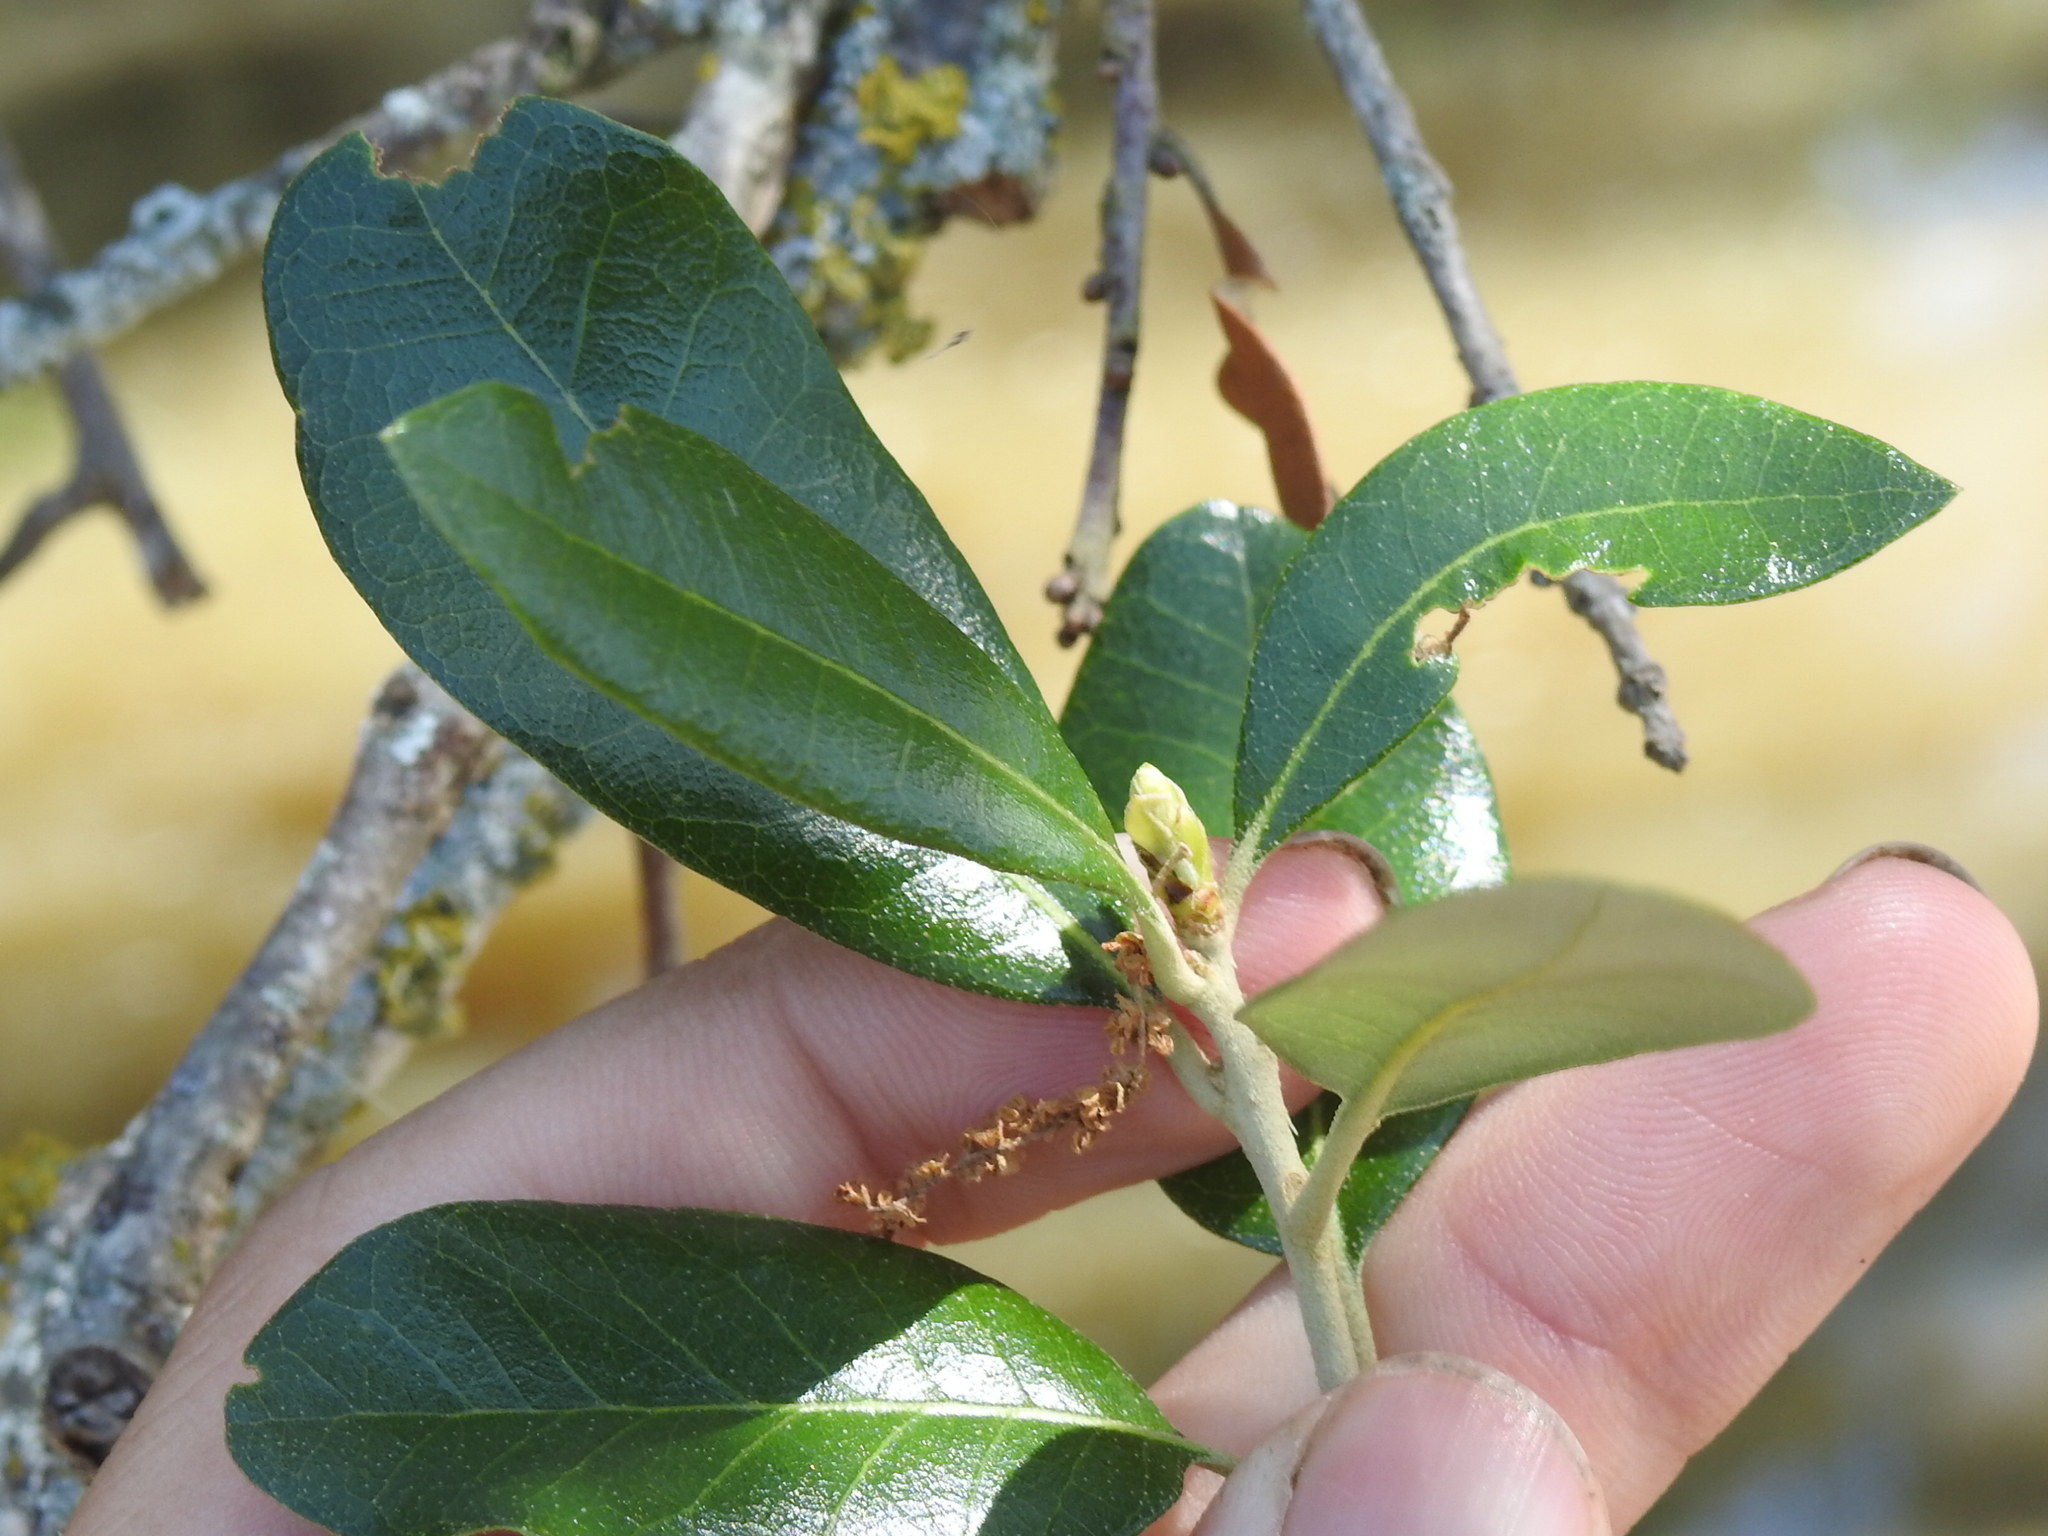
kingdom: Plantae
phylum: Tracheophyta
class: Magnoliopsida
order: Fagales
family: Fagaceae
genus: Quercus
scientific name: Quercus fusiformis
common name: Texas live oak
